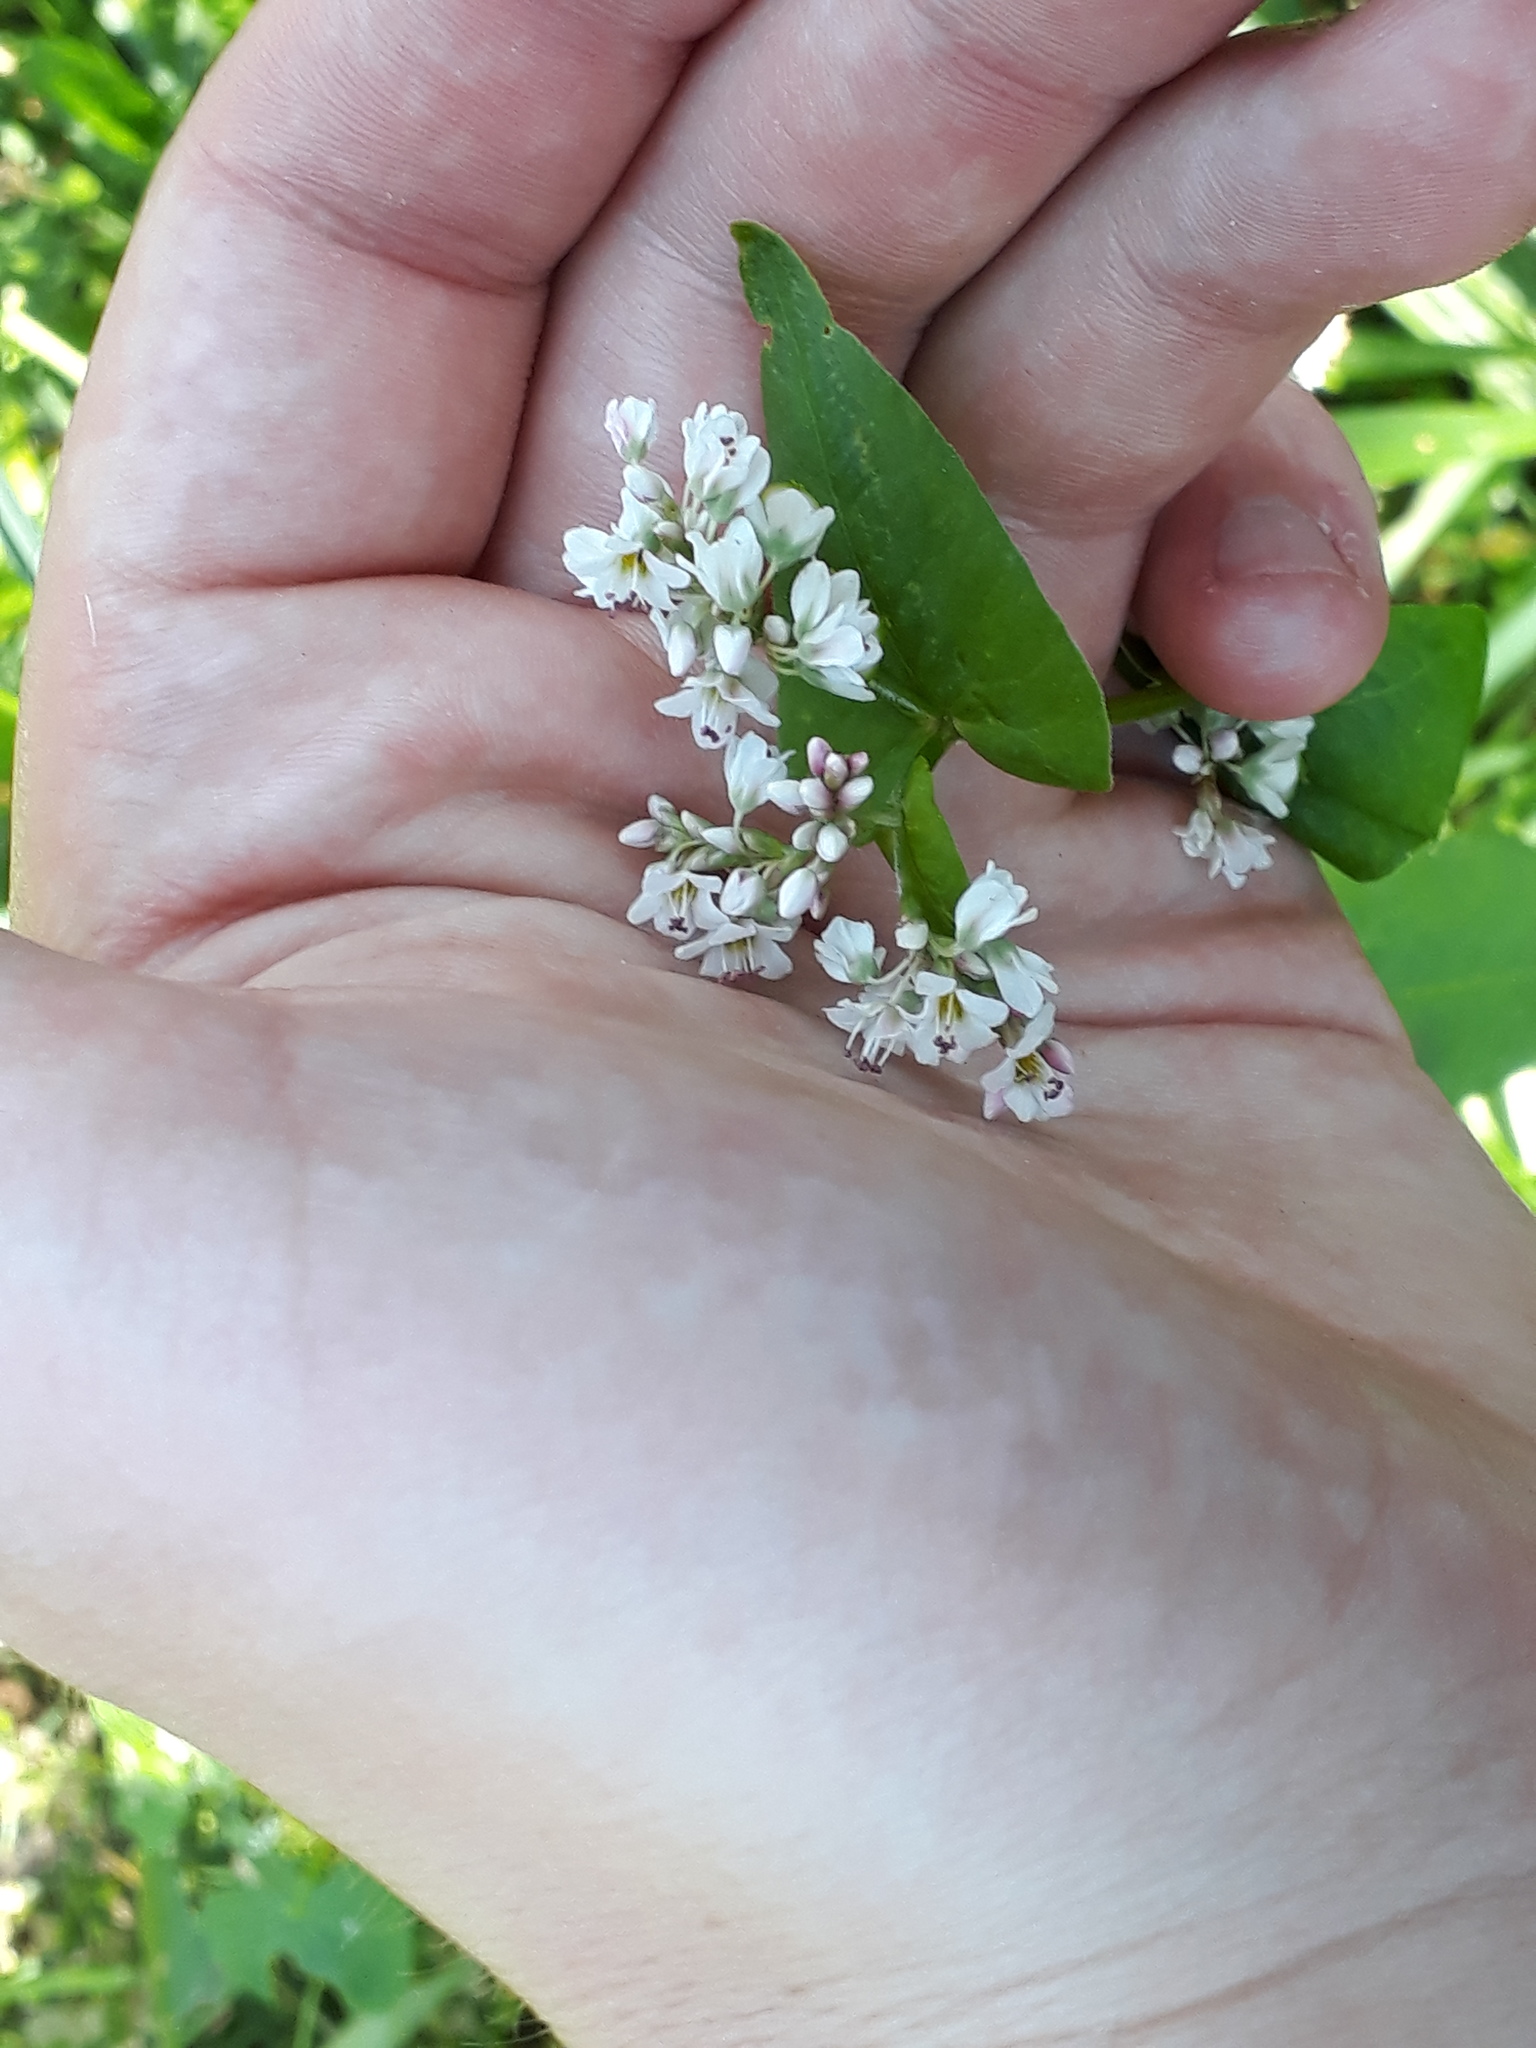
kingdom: Plantae
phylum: Tracheophyta
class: Magnoliopsida
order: Caryophyllales
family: Polygonaceae
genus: Fagopyrum
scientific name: Fagopyrum esculentum
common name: Buckwheat
